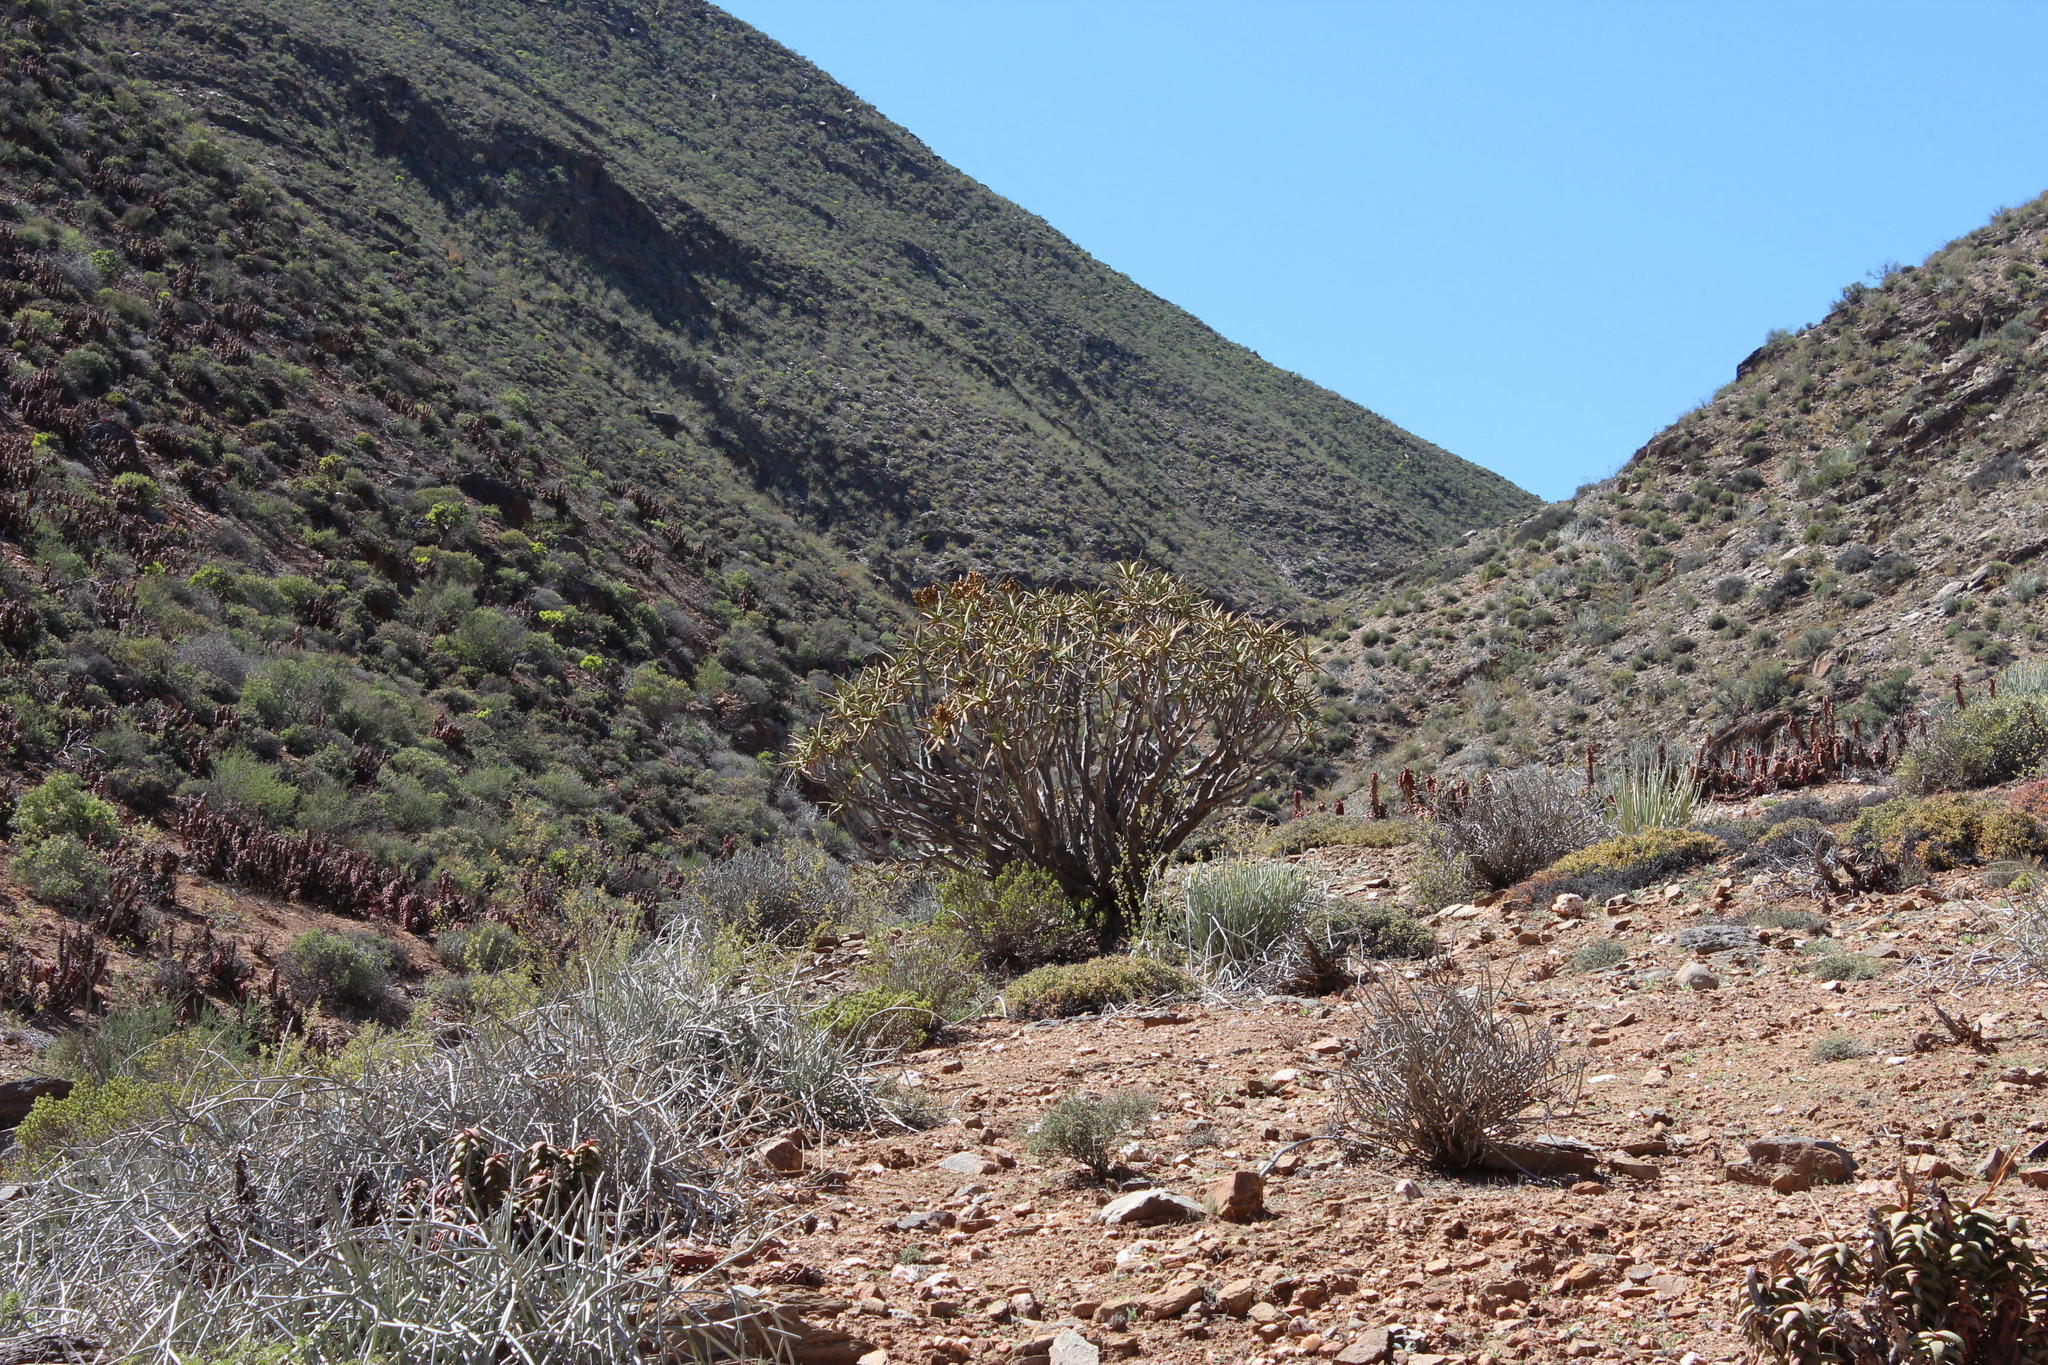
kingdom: Plantae
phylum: Tracheophyta
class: Liliopsida
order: Asparagales
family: Asphodelaceae
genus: Aloidendron
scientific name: Aloidendron ramosissimum
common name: Bush quiver tree
